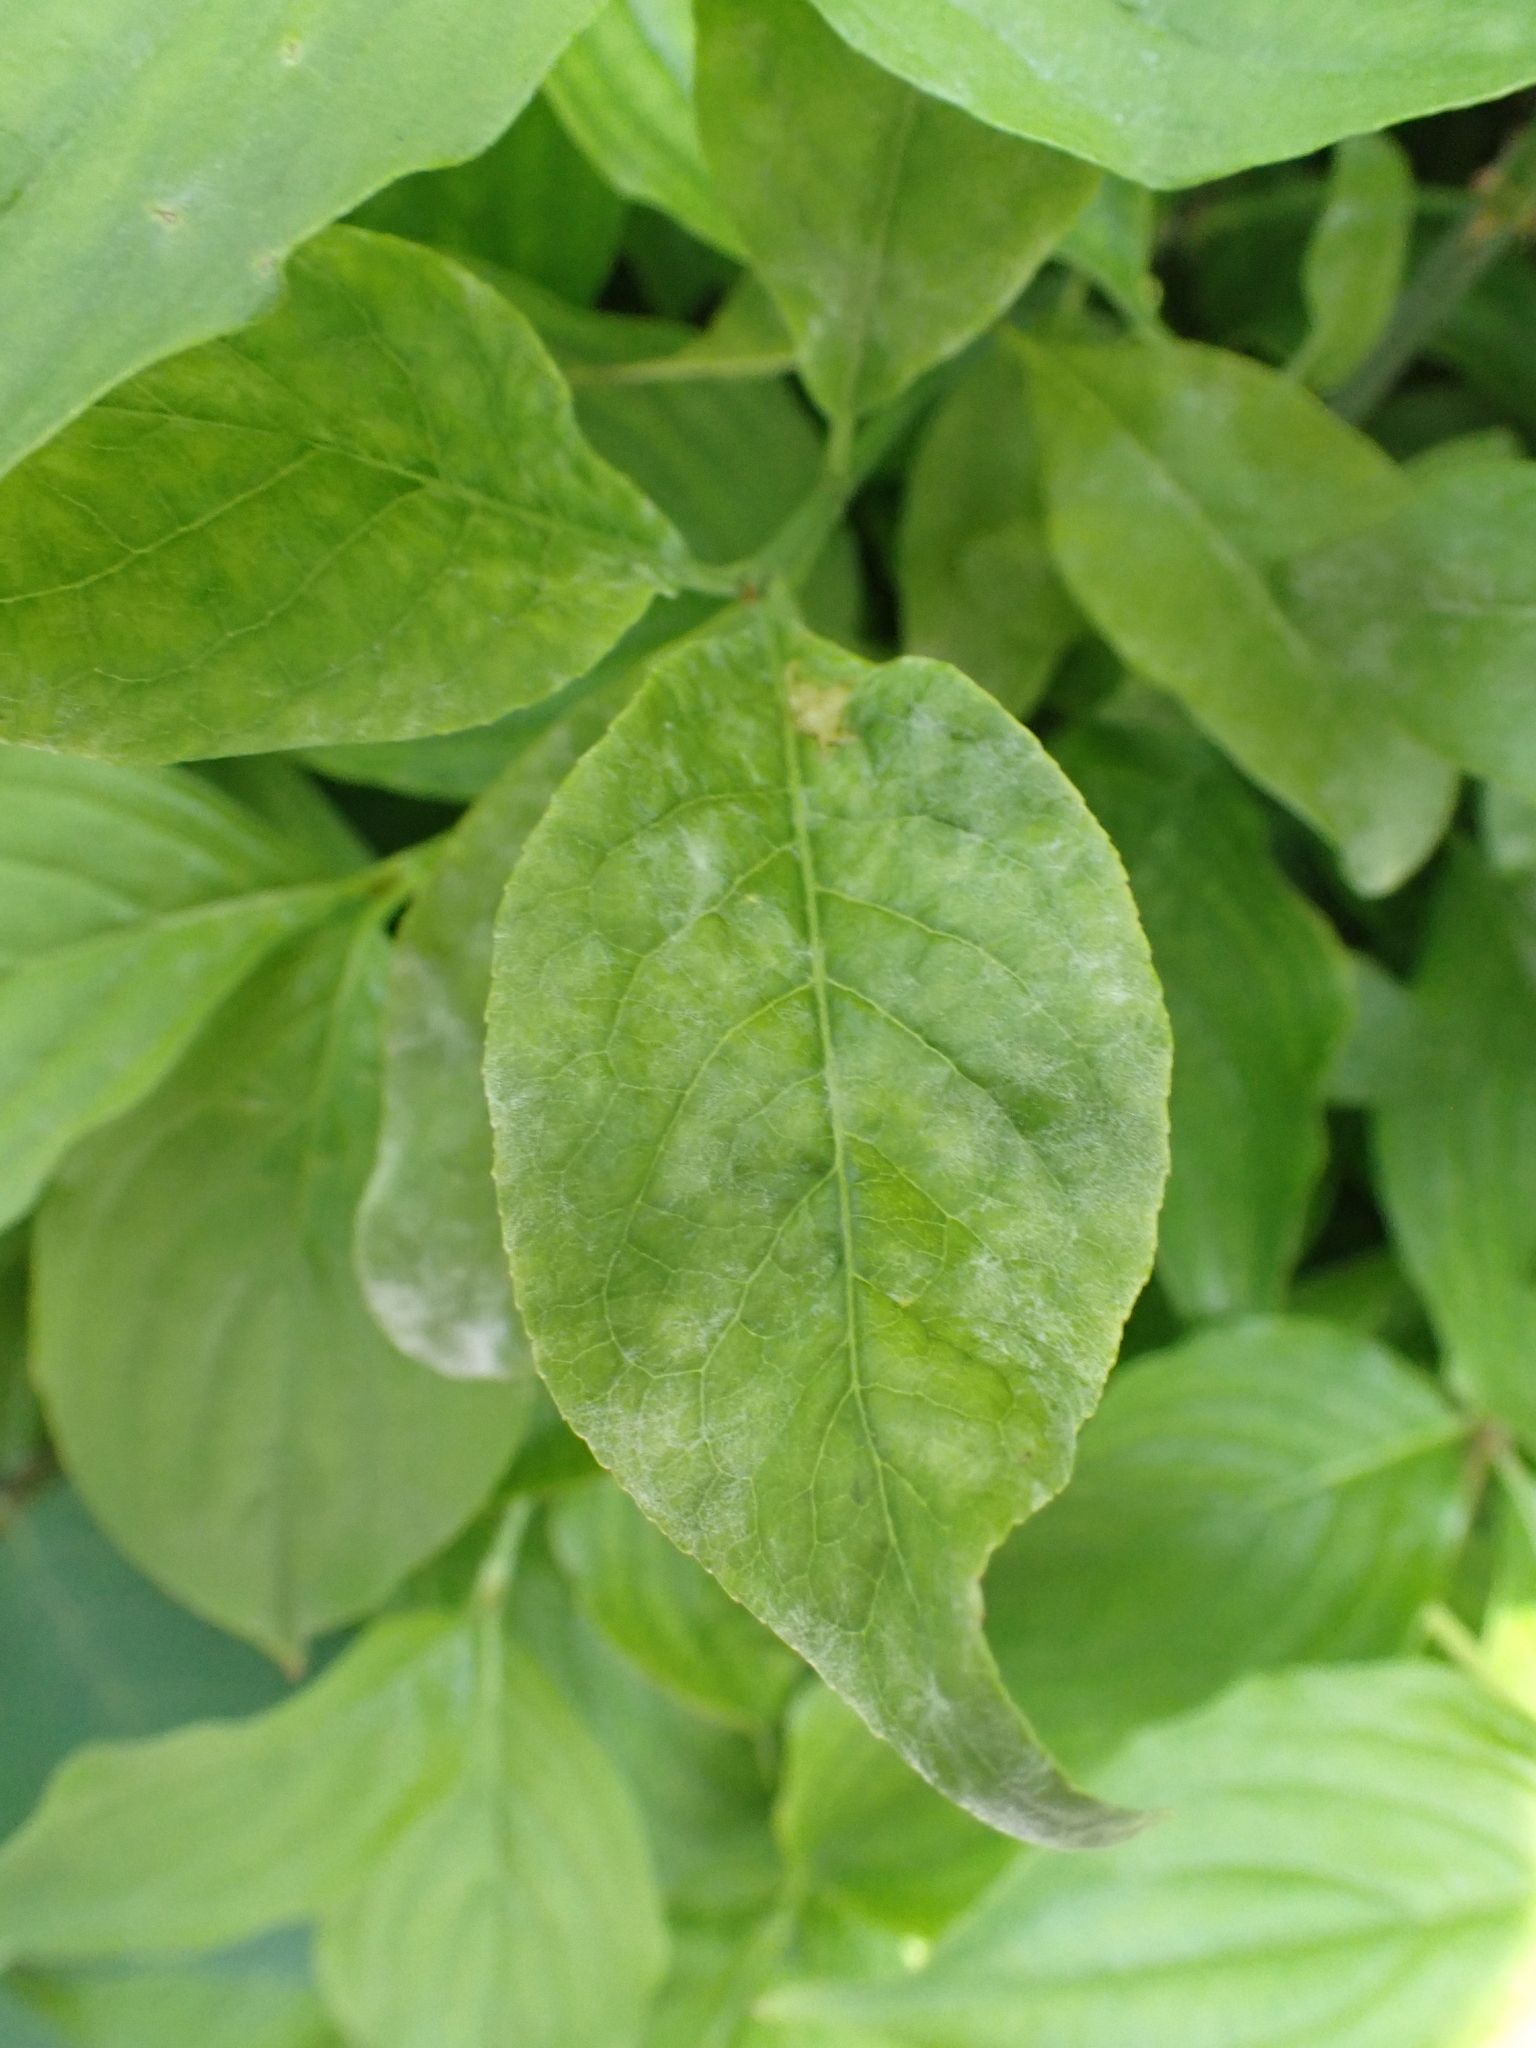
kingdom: Fungi
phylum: Ascomycota
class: Leotiomycetes
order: Helotiales
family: Erysiphaceae
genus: Erysiphe
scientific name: Erysiphe euonymi
